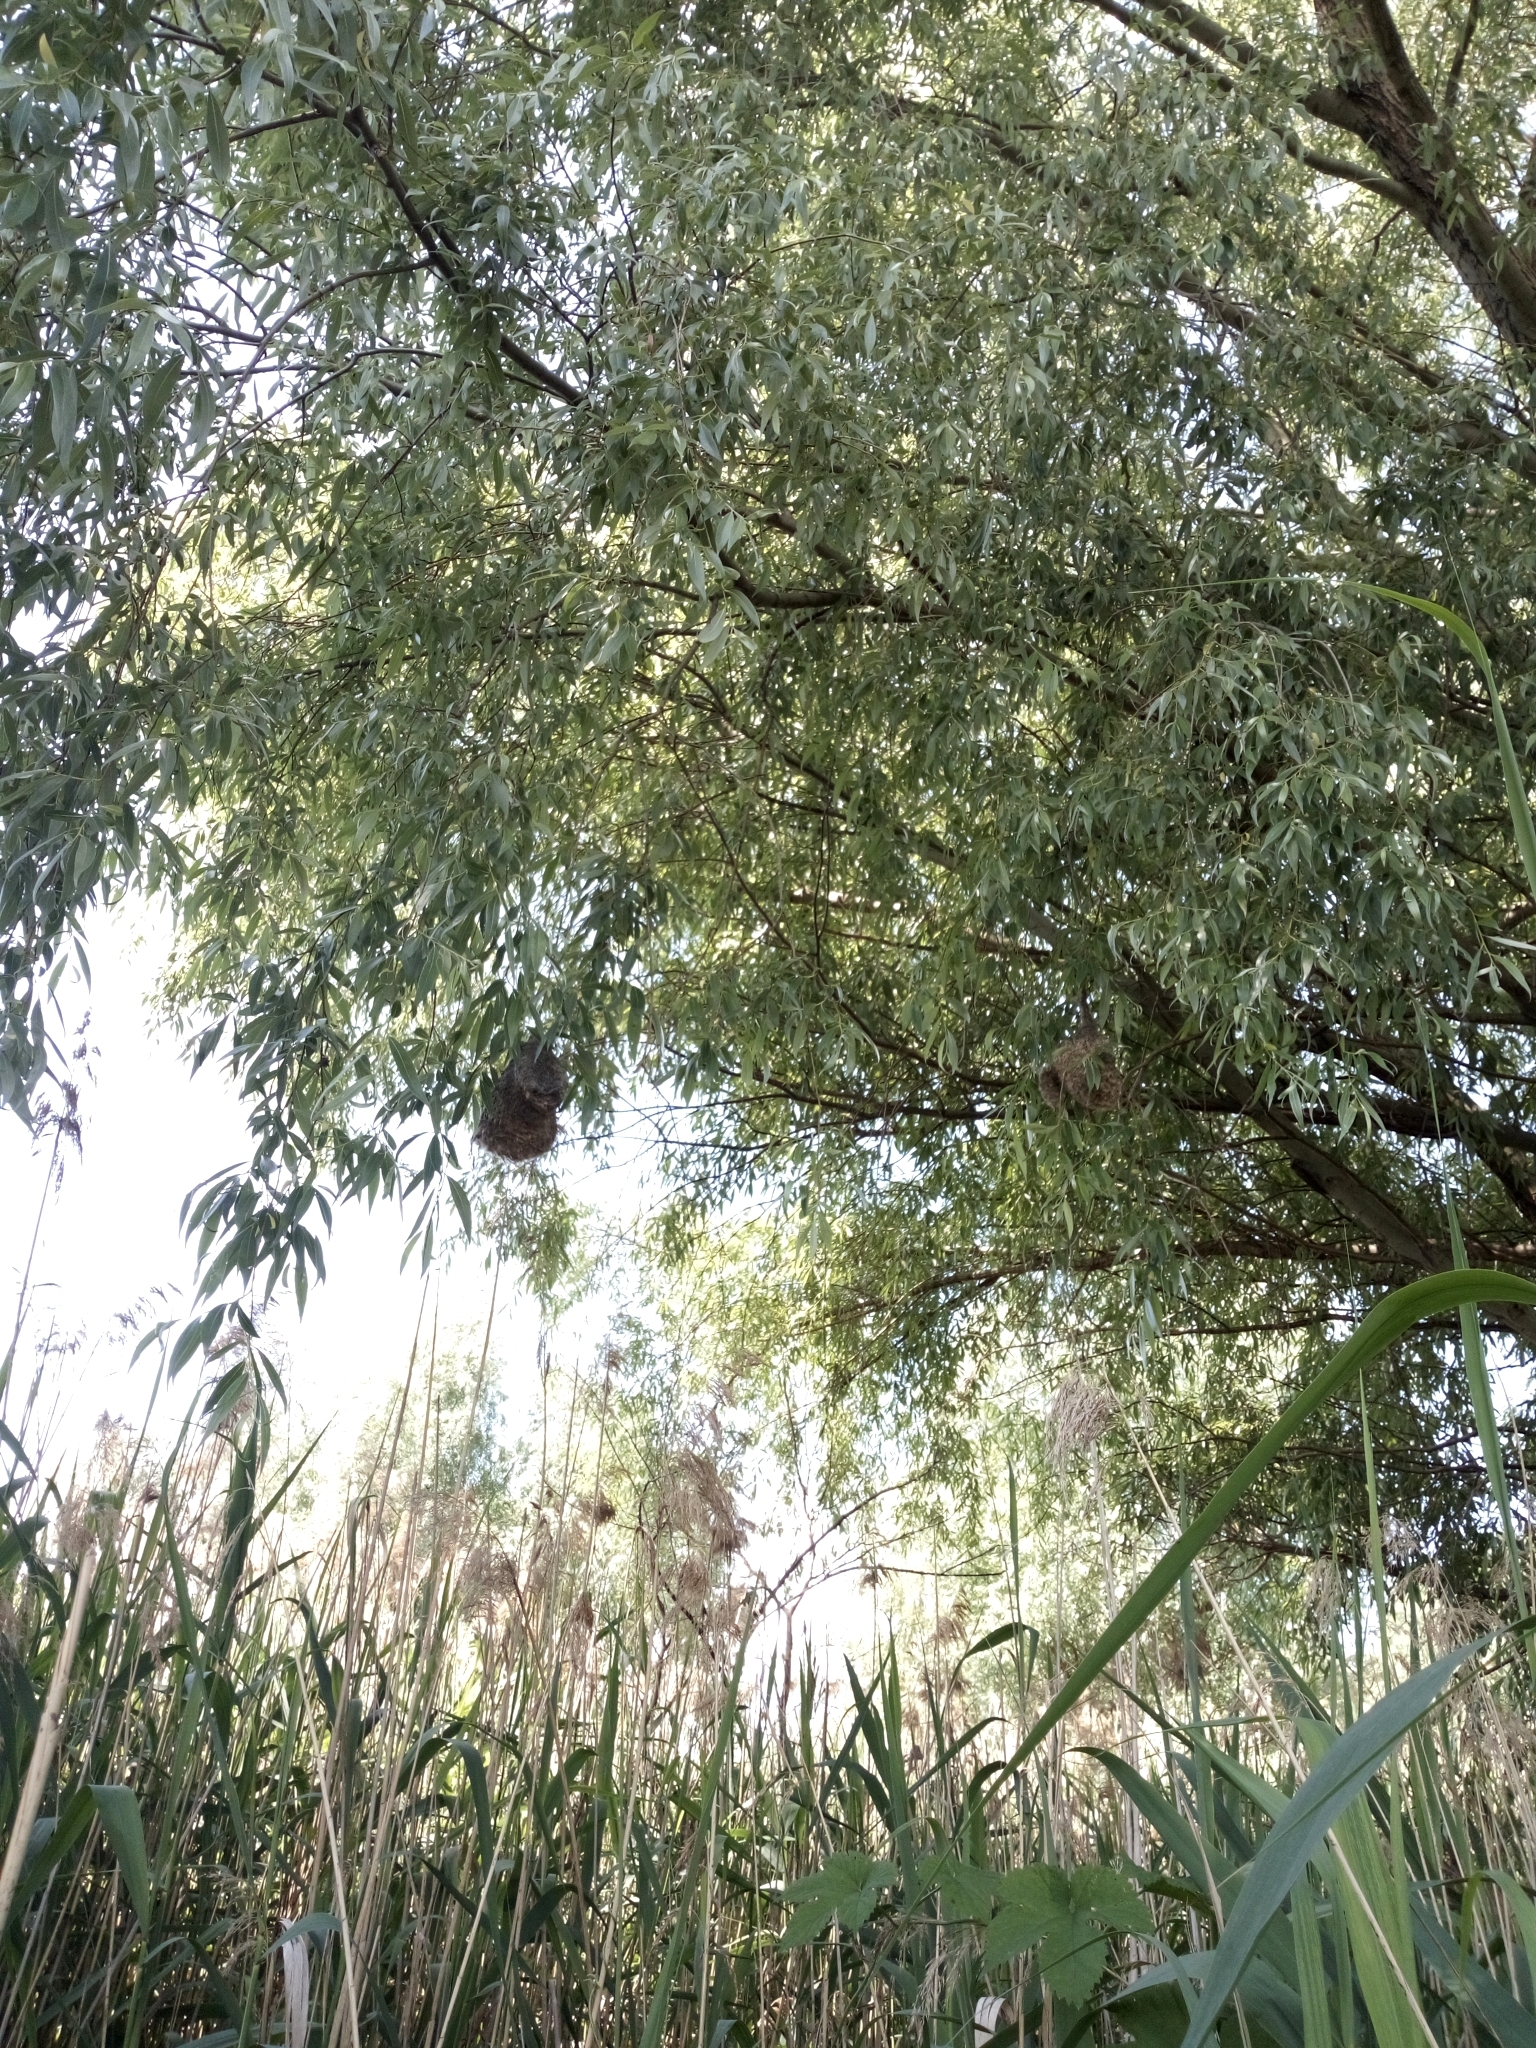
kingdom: Animalia
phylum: Chordata
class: Aves
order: Passeriformes
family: Remizidae
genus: Remiz
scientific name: Remiz pendulinus
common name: Eurasian penduline tit
